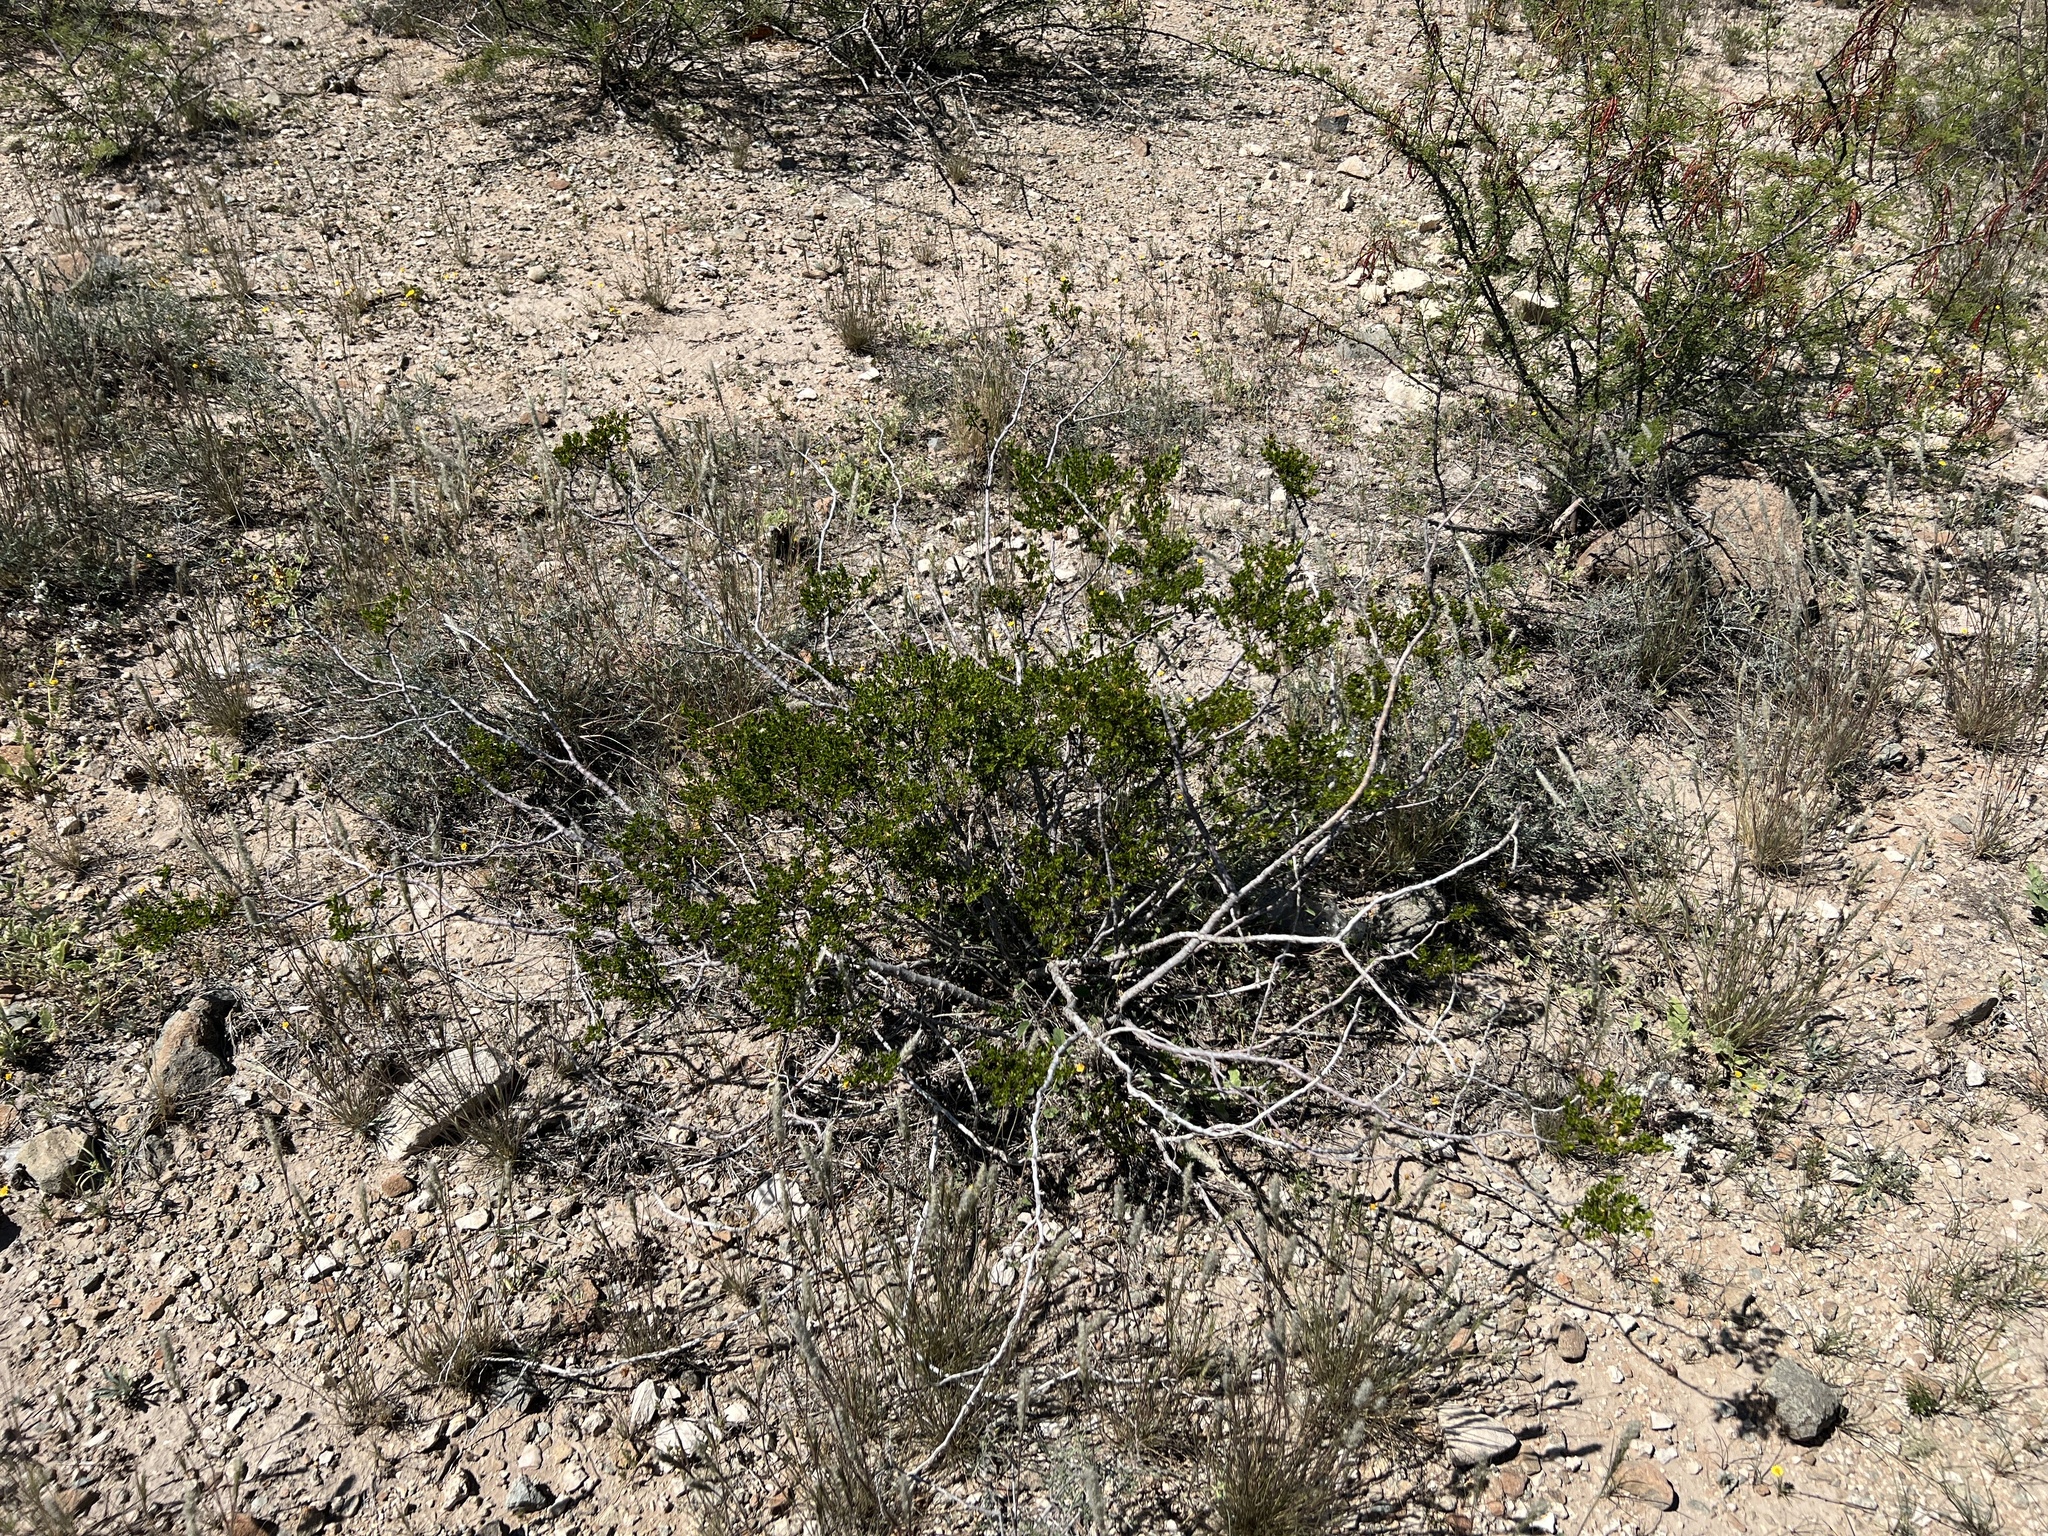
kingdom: Plantae
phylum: Tracheophyta
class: Magnoliopsida
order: Zygophyllales
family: Zygophyllaceae
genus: Larrea
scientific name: Larrea tridentata
